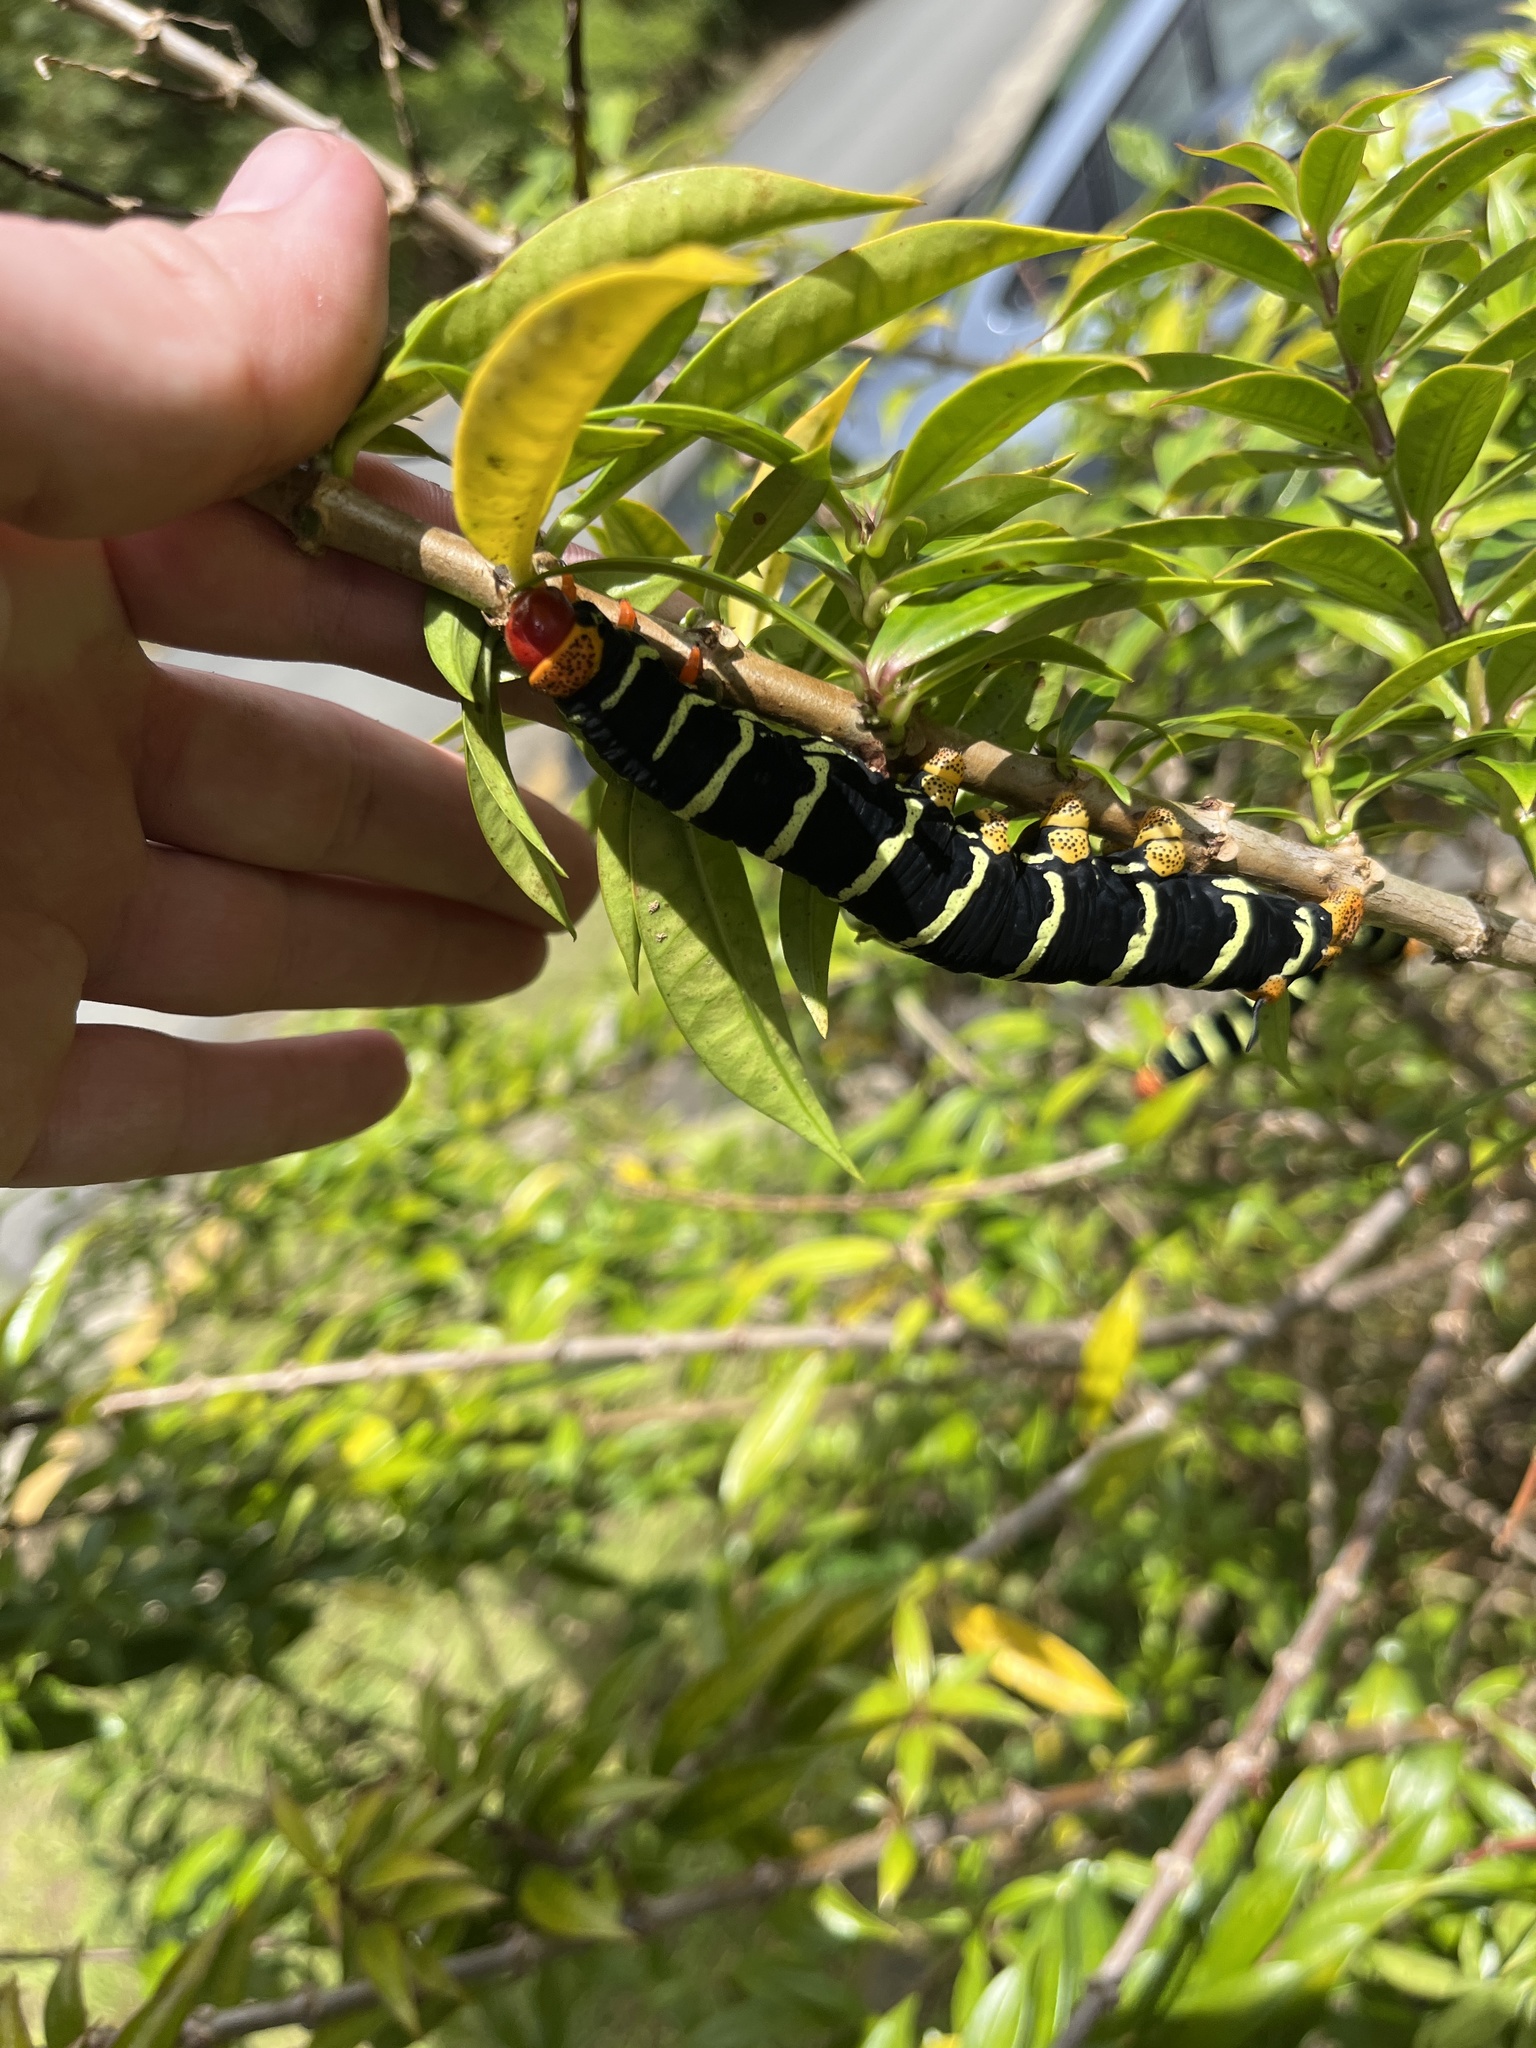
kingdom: Animalia
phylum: Arthropoda
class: Insecta
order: Lepidoptera
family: Sphingidae
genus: Pseudosphinx
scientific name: Pseudosphinx tetrio
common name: Tetrio sphinx
